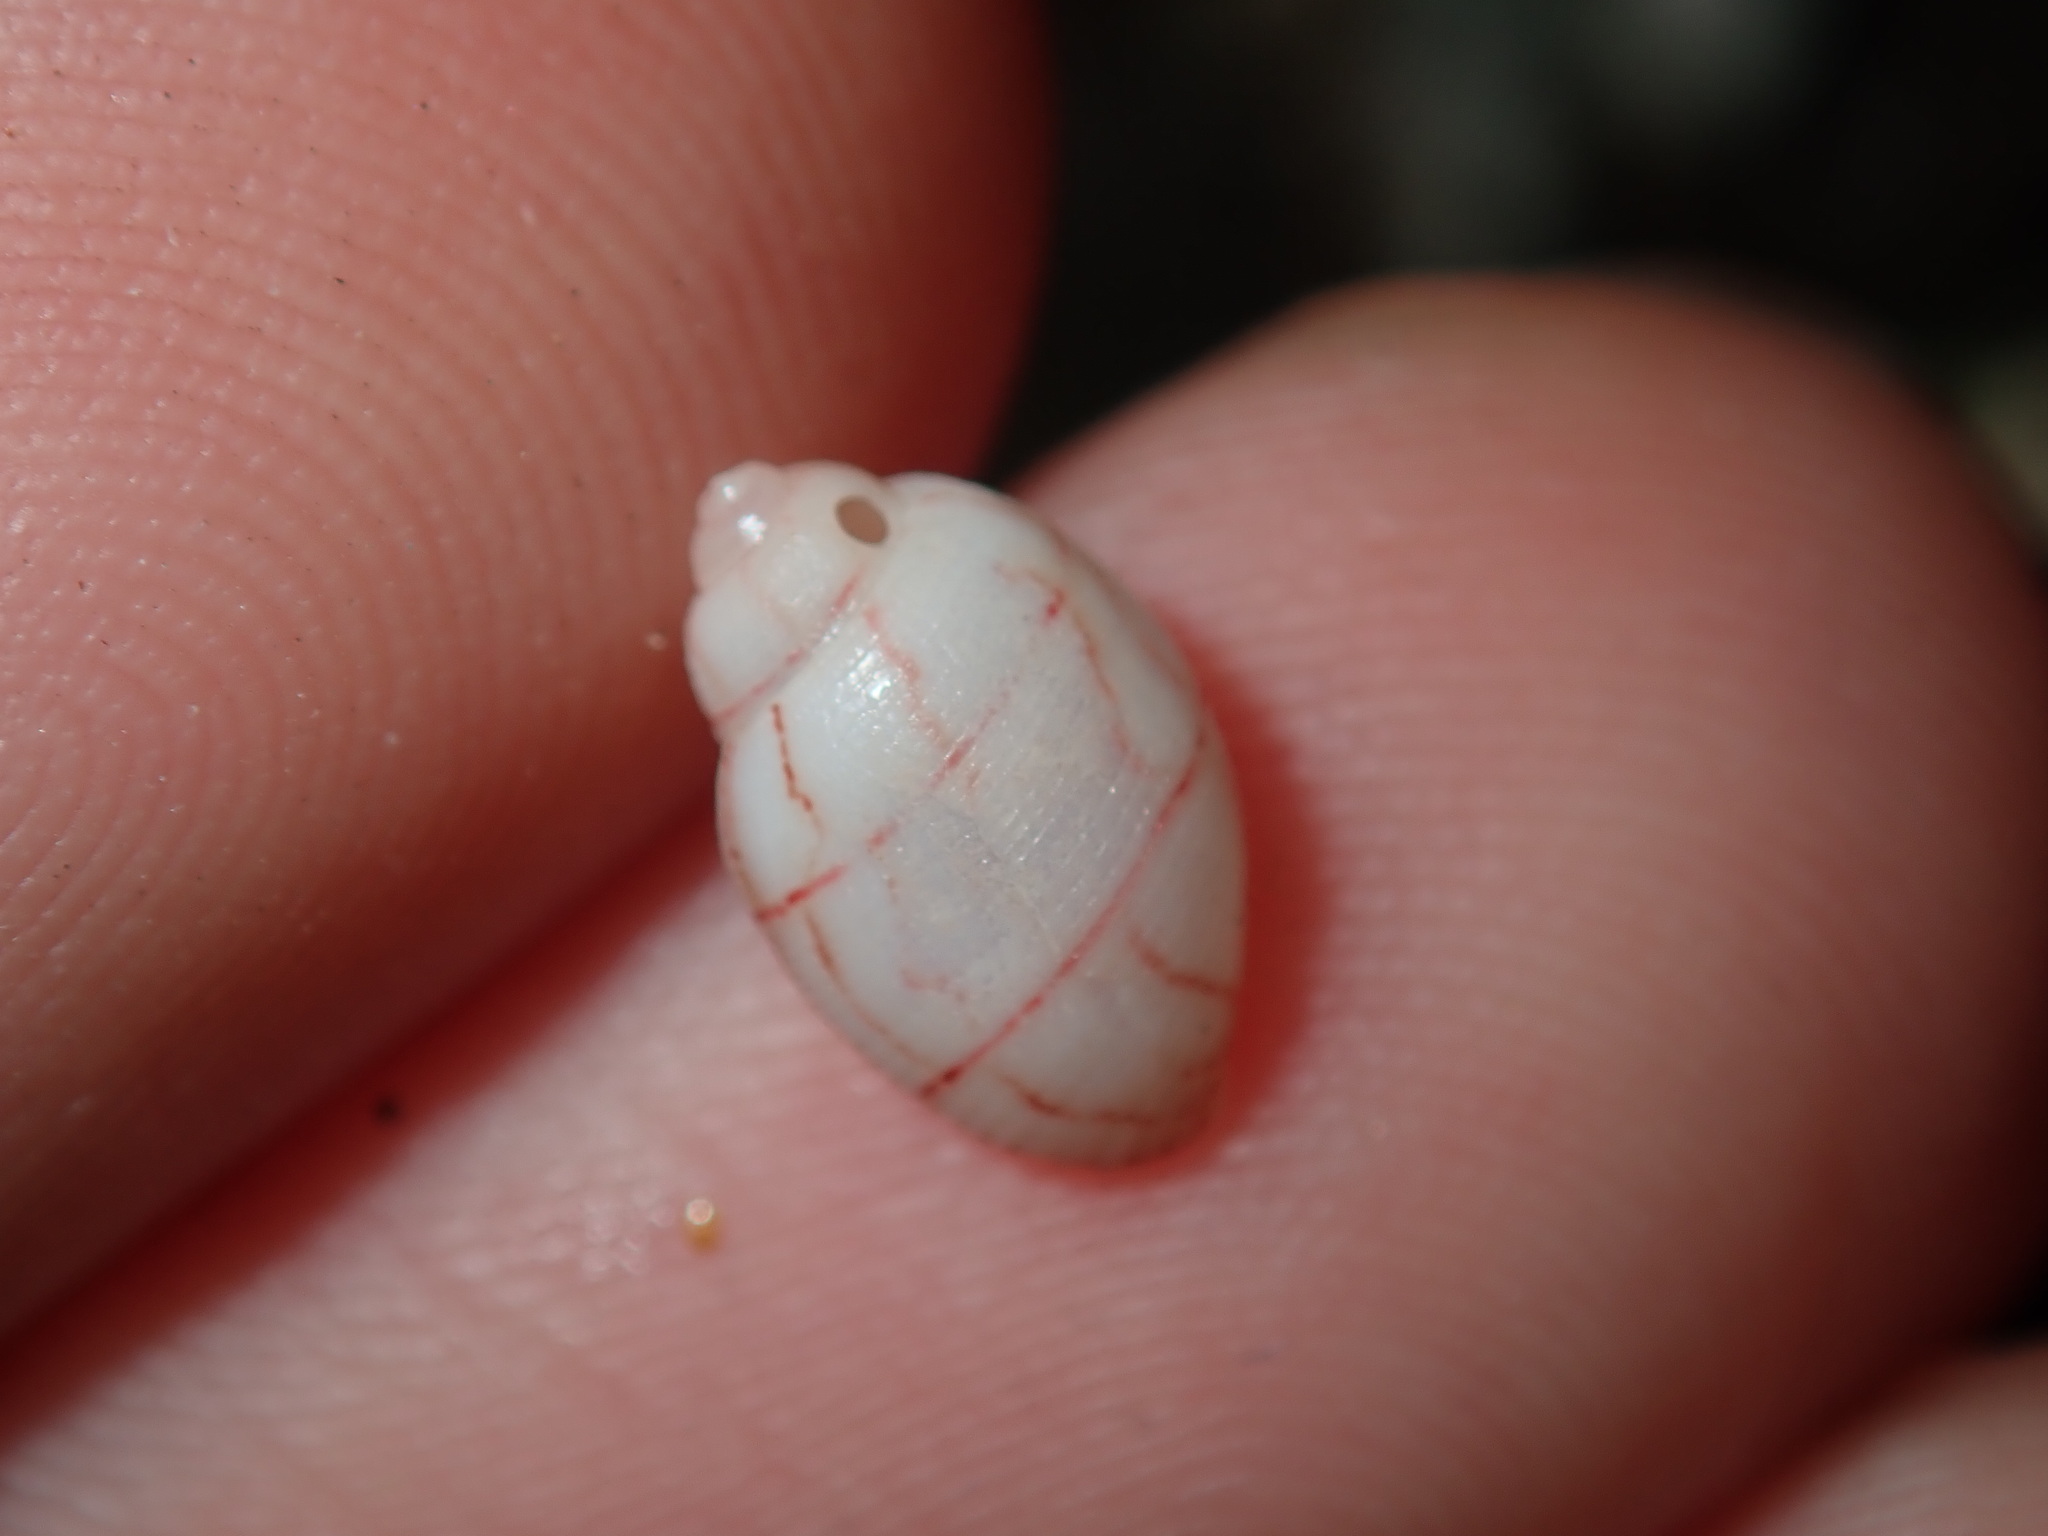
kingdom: Animalia
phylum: Mollusca
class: Gastropoda
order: Cephalaspidea
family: Aplustridae
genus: Bullina
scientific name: Bullina lineata
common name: Lined bubble snail
